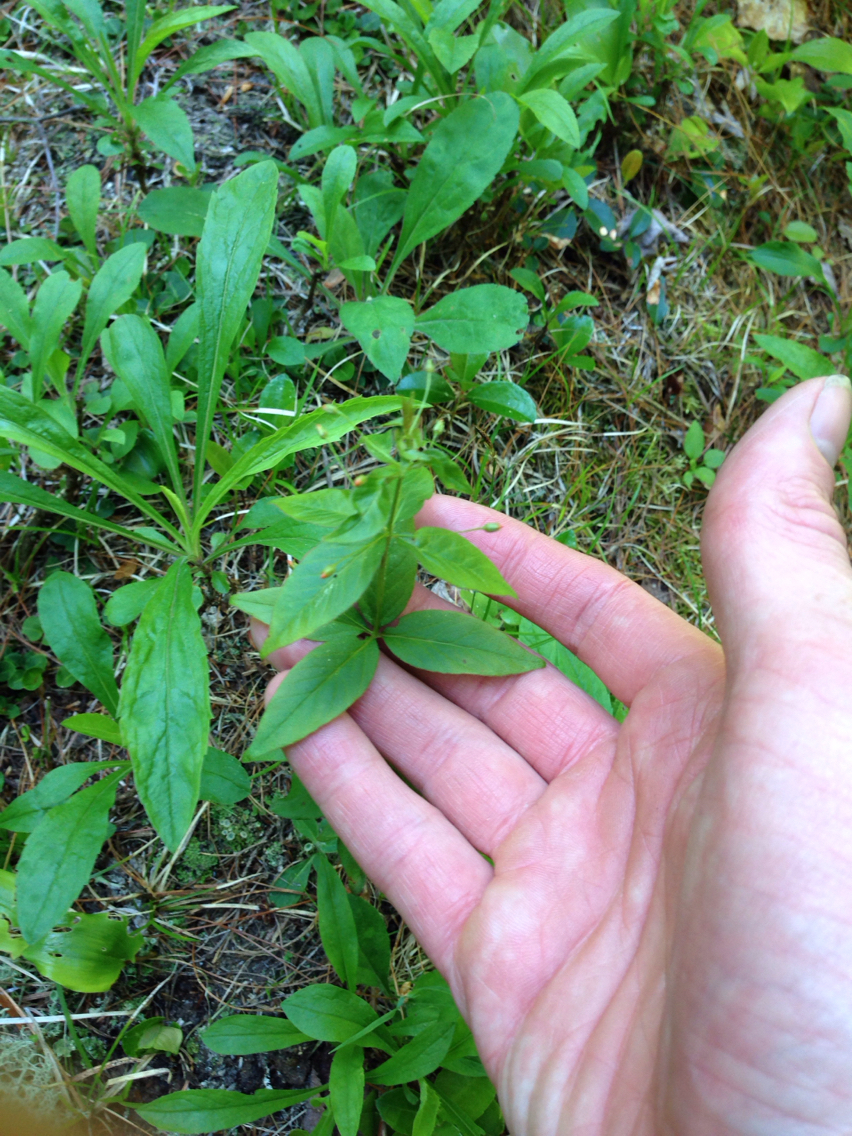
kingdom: Plantae
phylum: Tracheophyta
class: Magnoliopsida
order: Ericales
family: Primulaceae
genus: Lysimachia
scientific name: Lysimachia quadrifolia
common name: Whorled loosestrife
